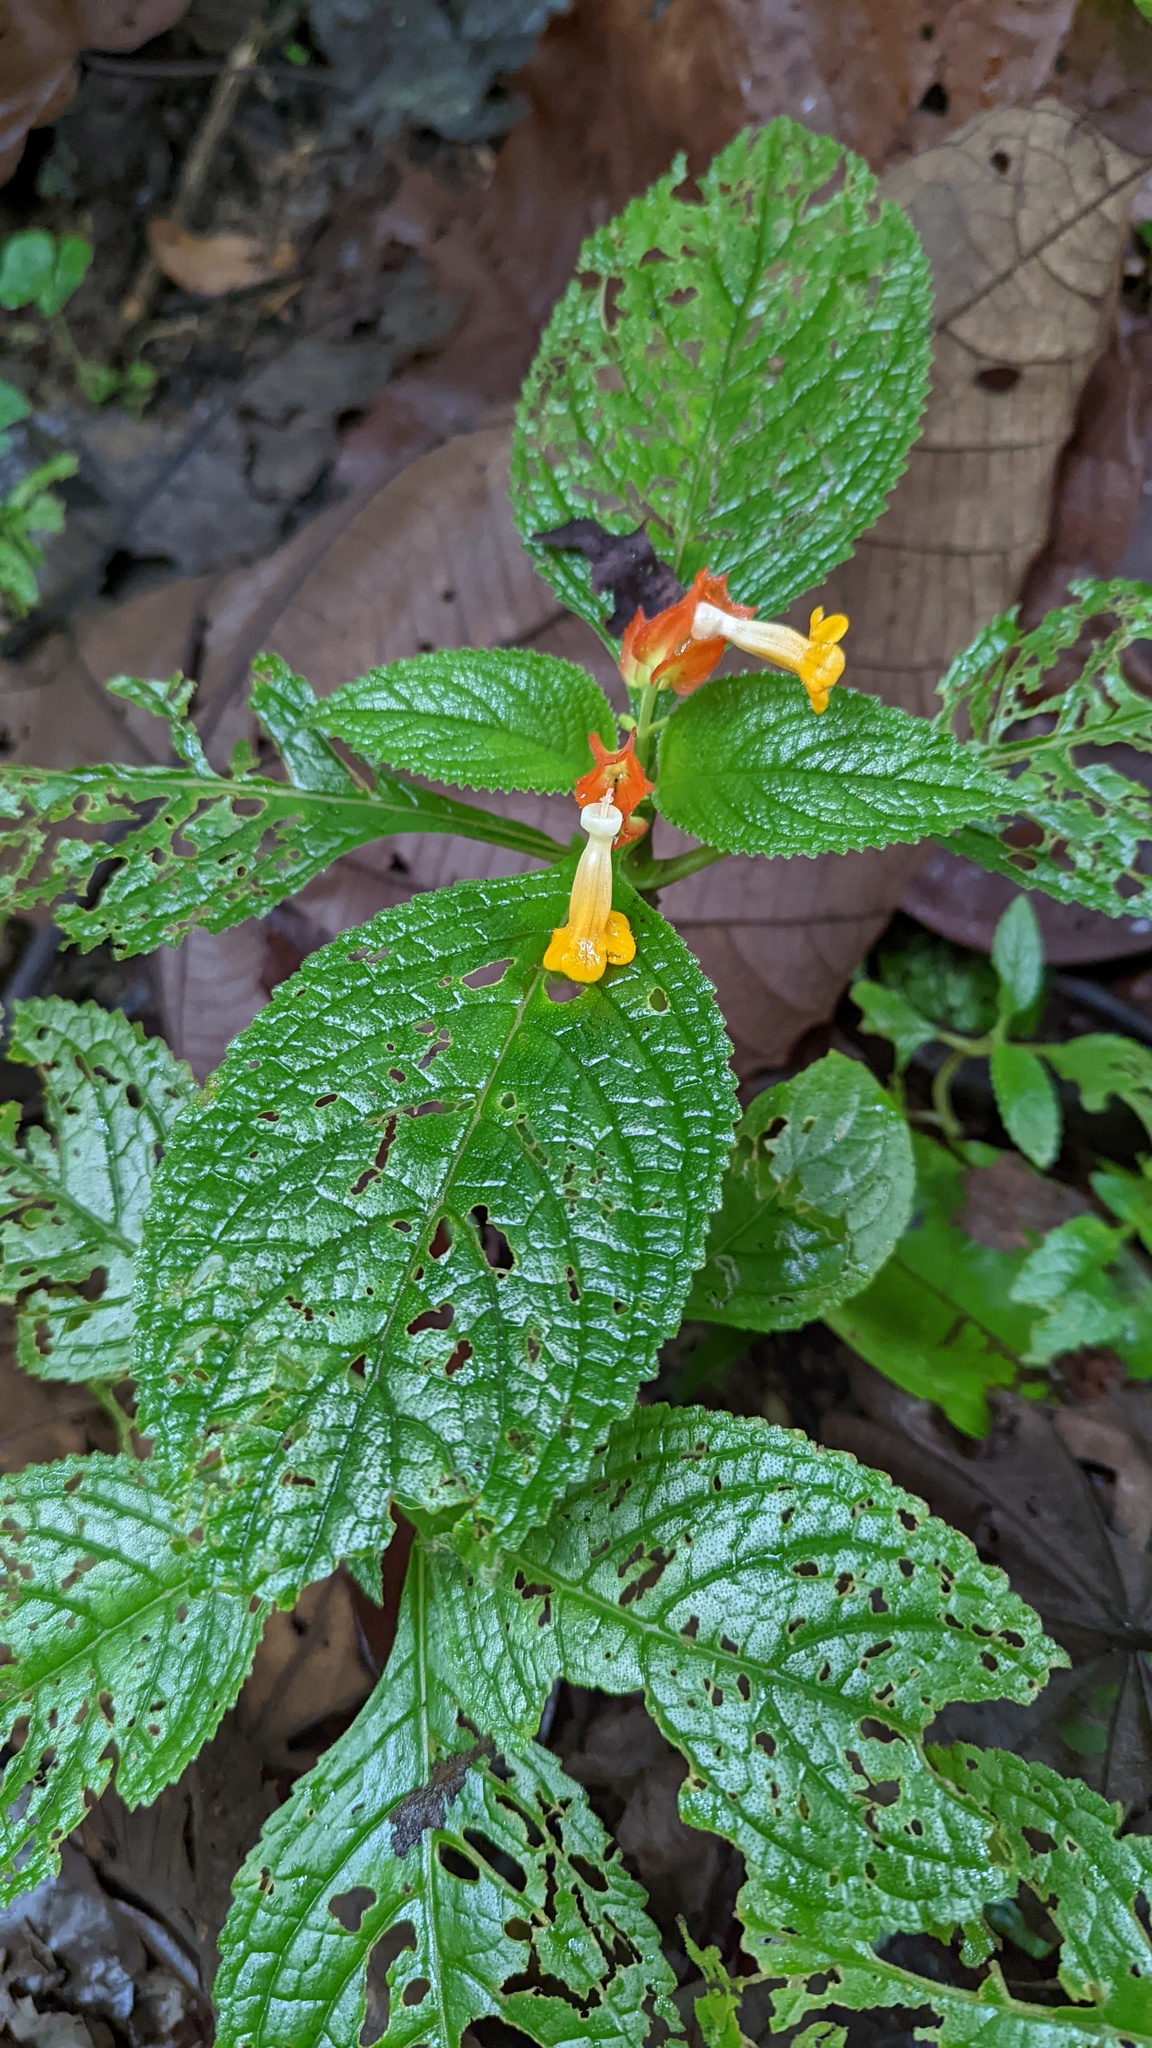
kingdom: Plantae
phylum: Tracheophyta
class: Magnoliopsida
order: Lamiales
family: Gesneriaceae
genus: Chrysothemis
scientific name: Chrysothemis pulchella
